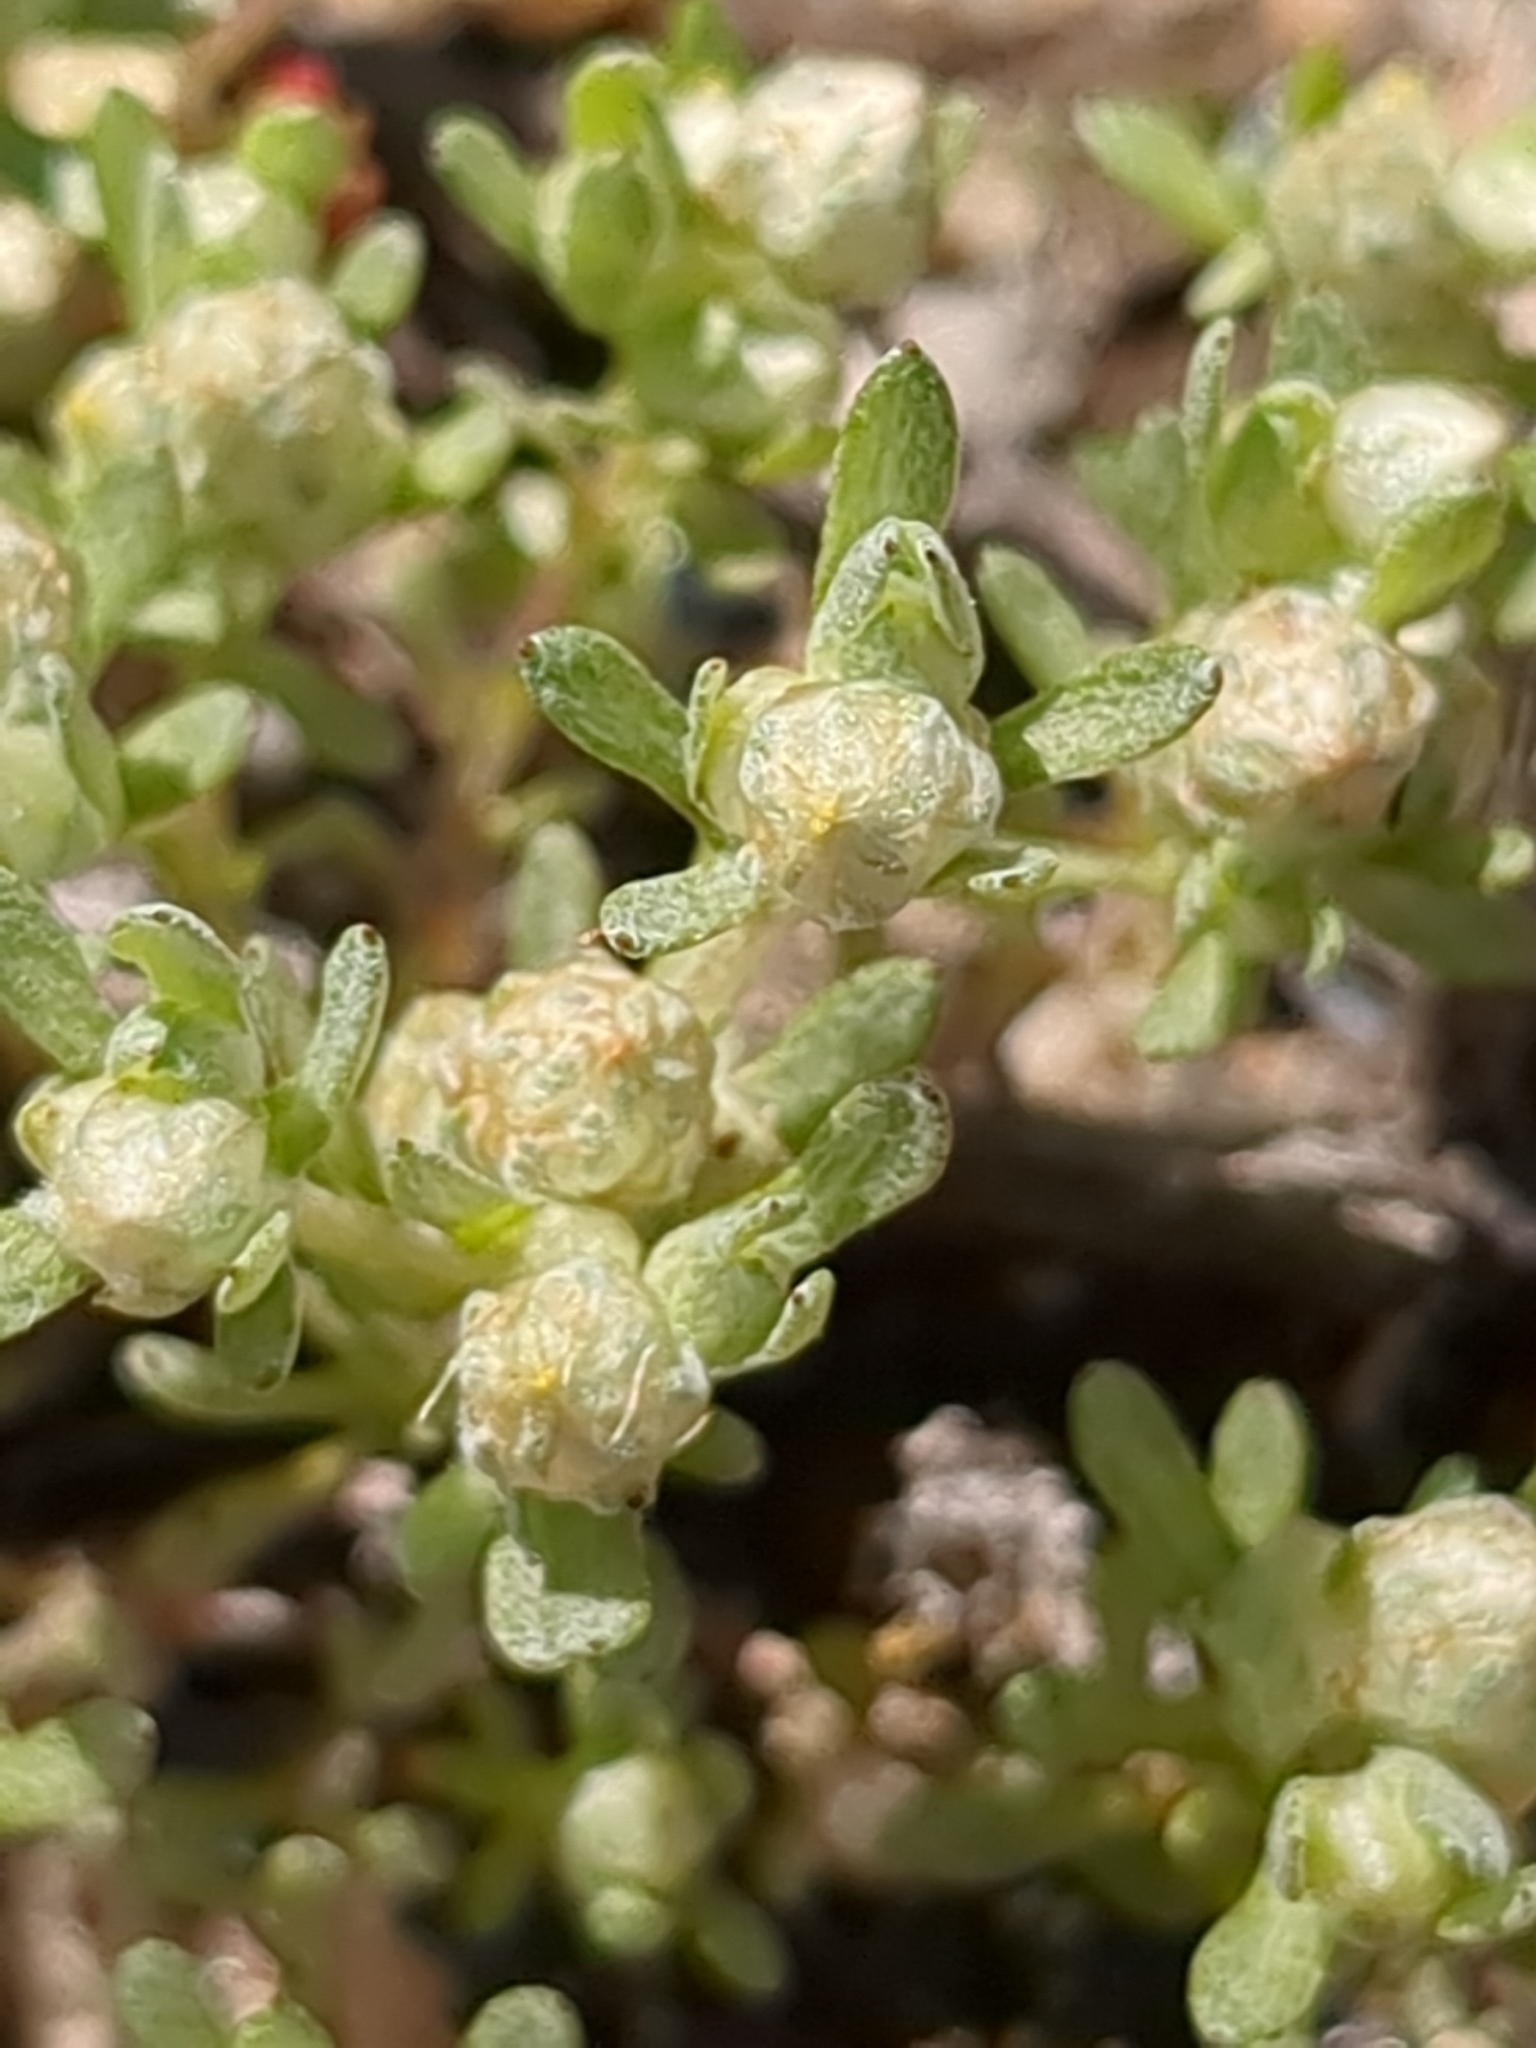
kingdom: Plantae
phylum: Tracheophyta
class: Magnoliopsida
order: Asterales
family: Asteraceae
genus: Stylocline
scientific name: Stylocline gnaphaloides
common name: Everlasting nest-straw
